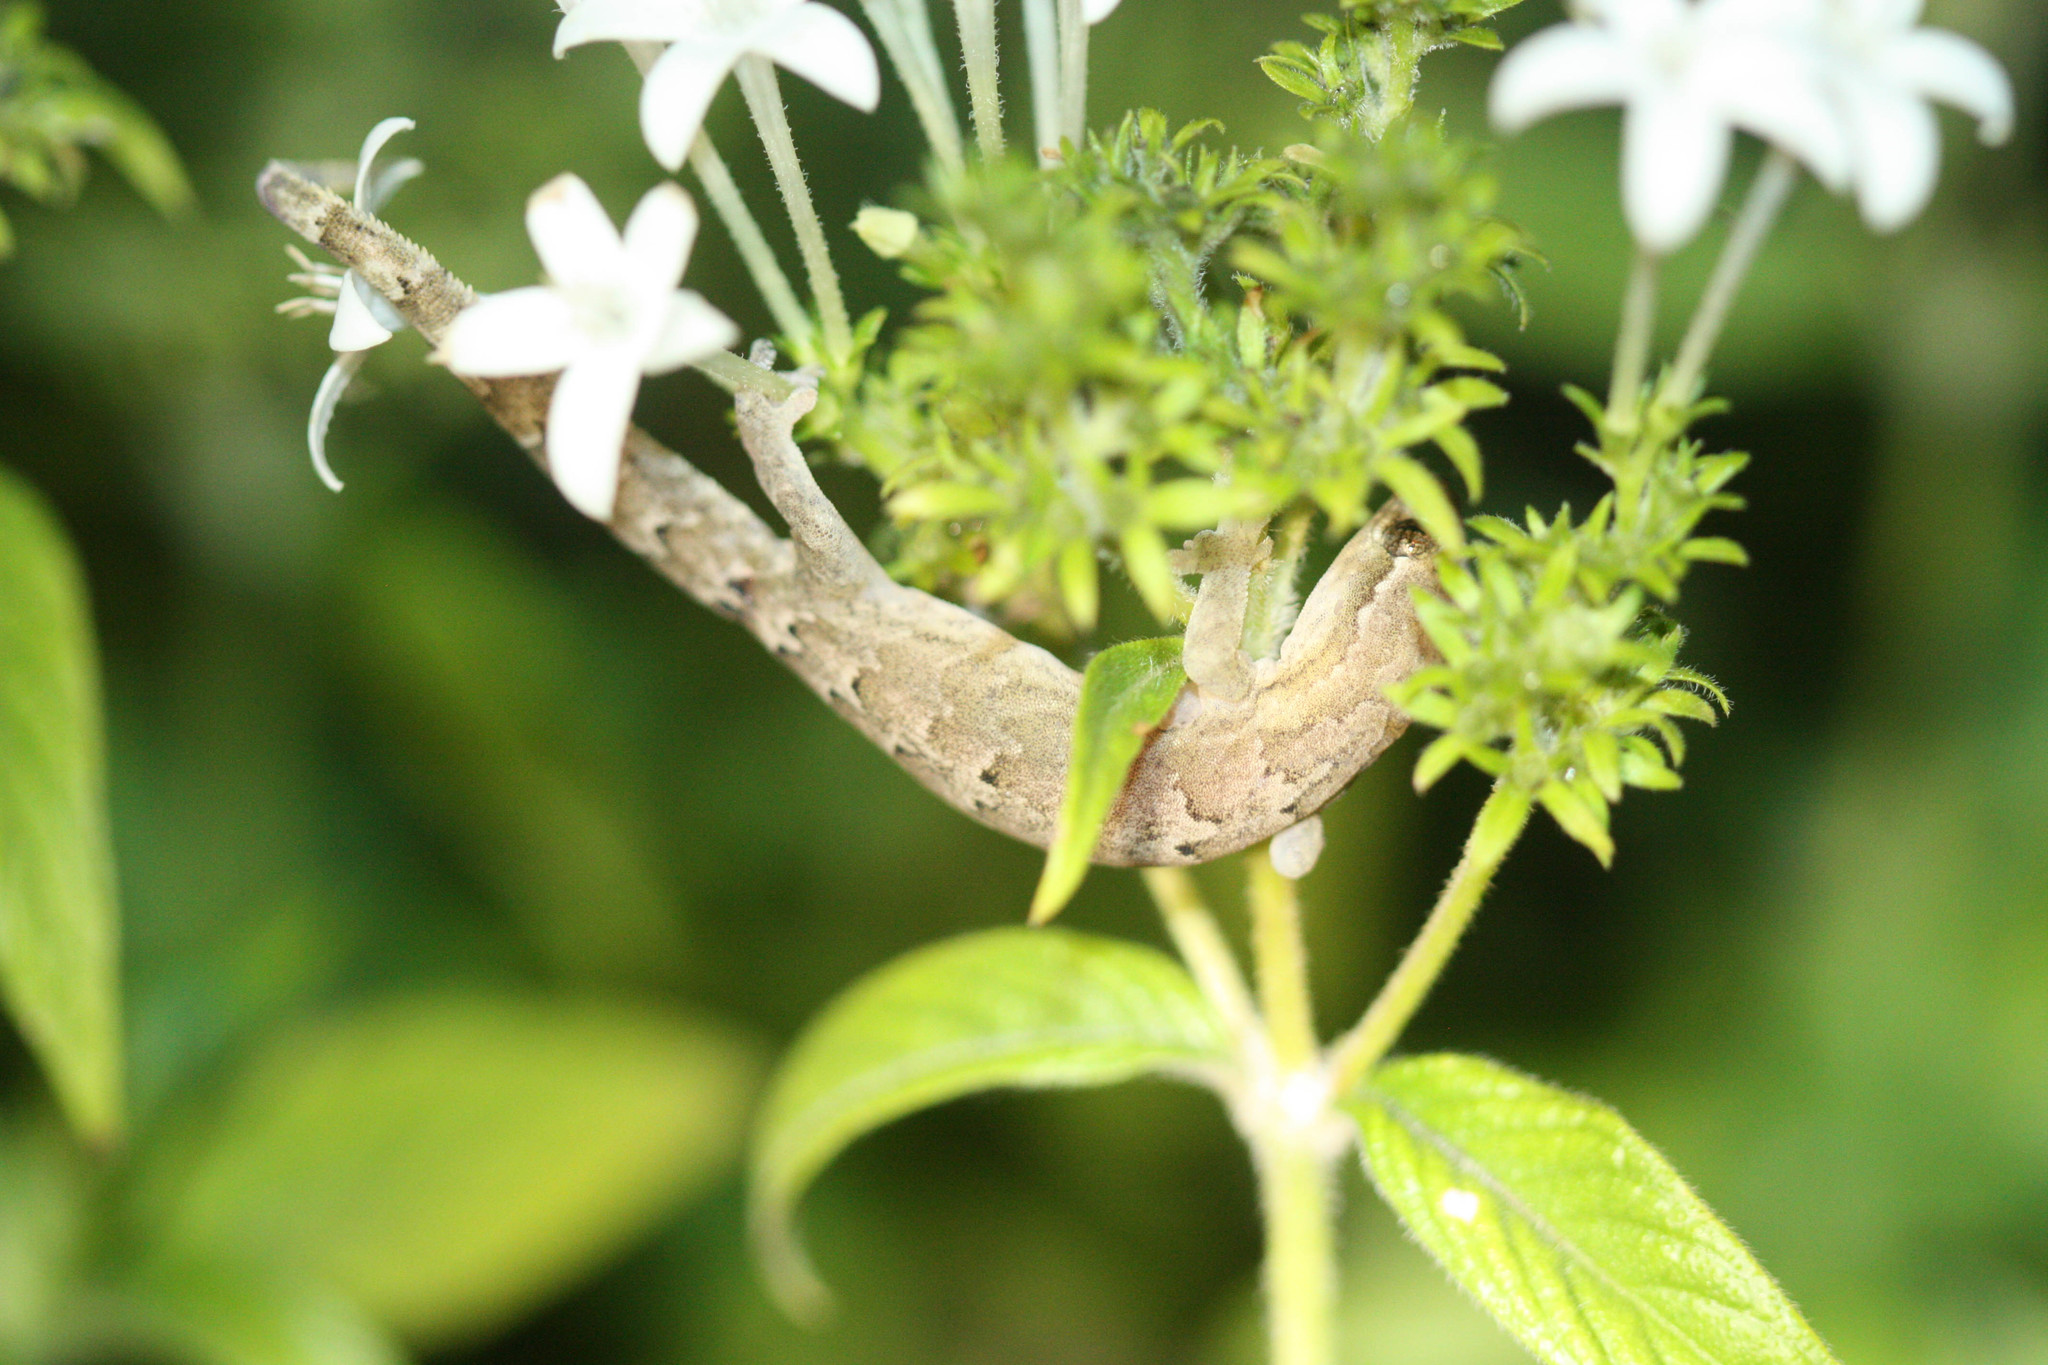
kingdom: Animalia
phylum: Chordata
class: Squamata
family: Gekkonidae
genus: Lepidodactylus
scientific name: Lepidodactylus lugubris
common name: Mourning gecko
